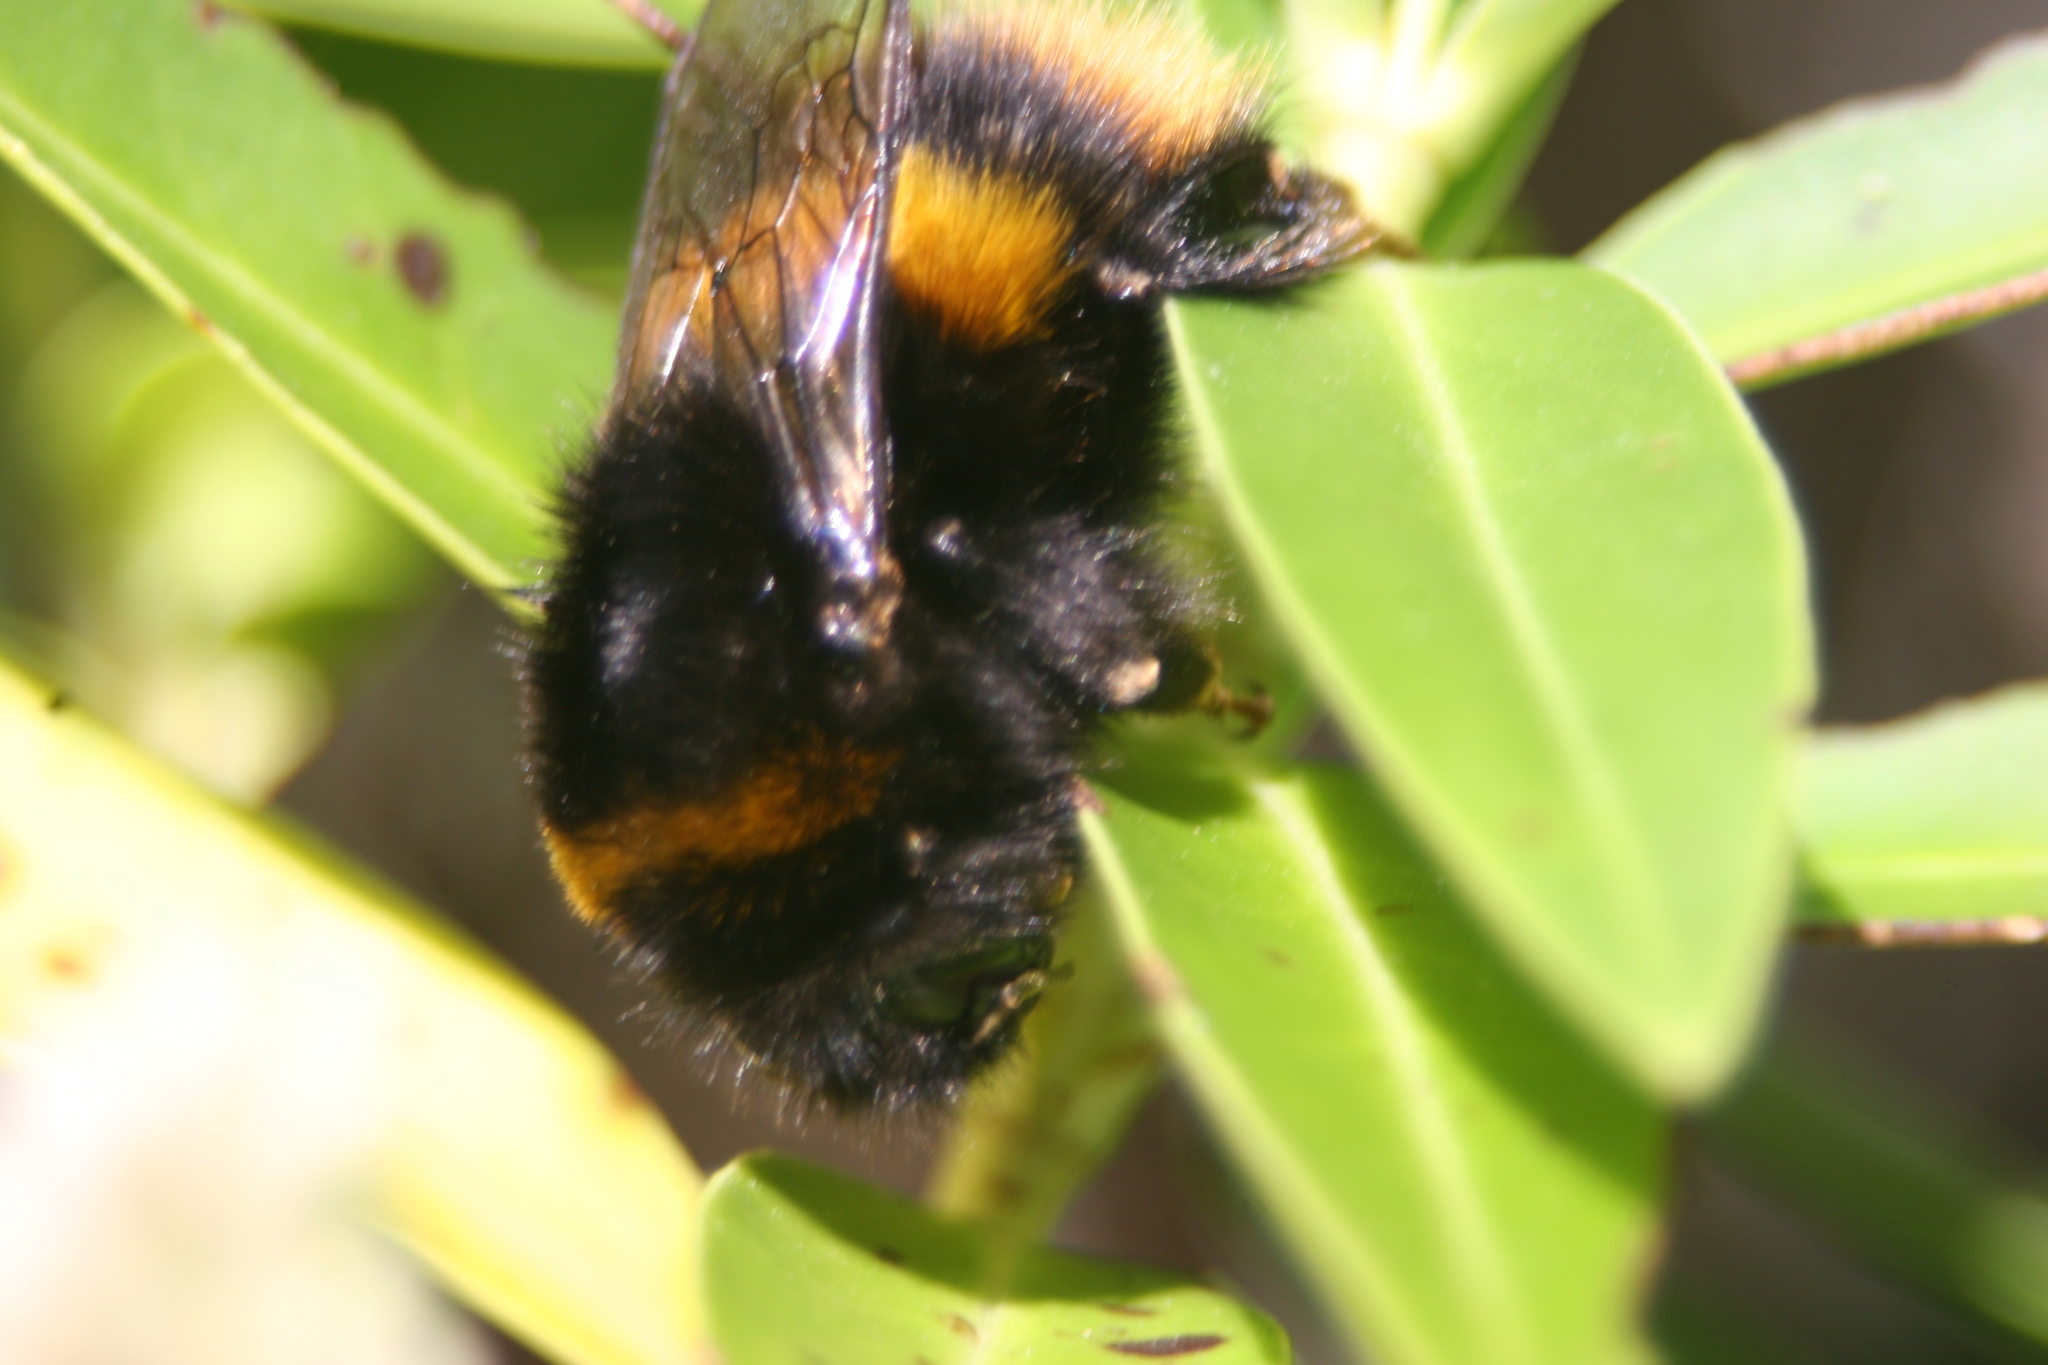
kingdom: Animalia
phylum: Arthropoda
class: Insecta
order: Hymenoptera
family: Apidae
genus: Bombus
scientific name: Bombus terrestris
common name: Buff-tailed bumblebee
